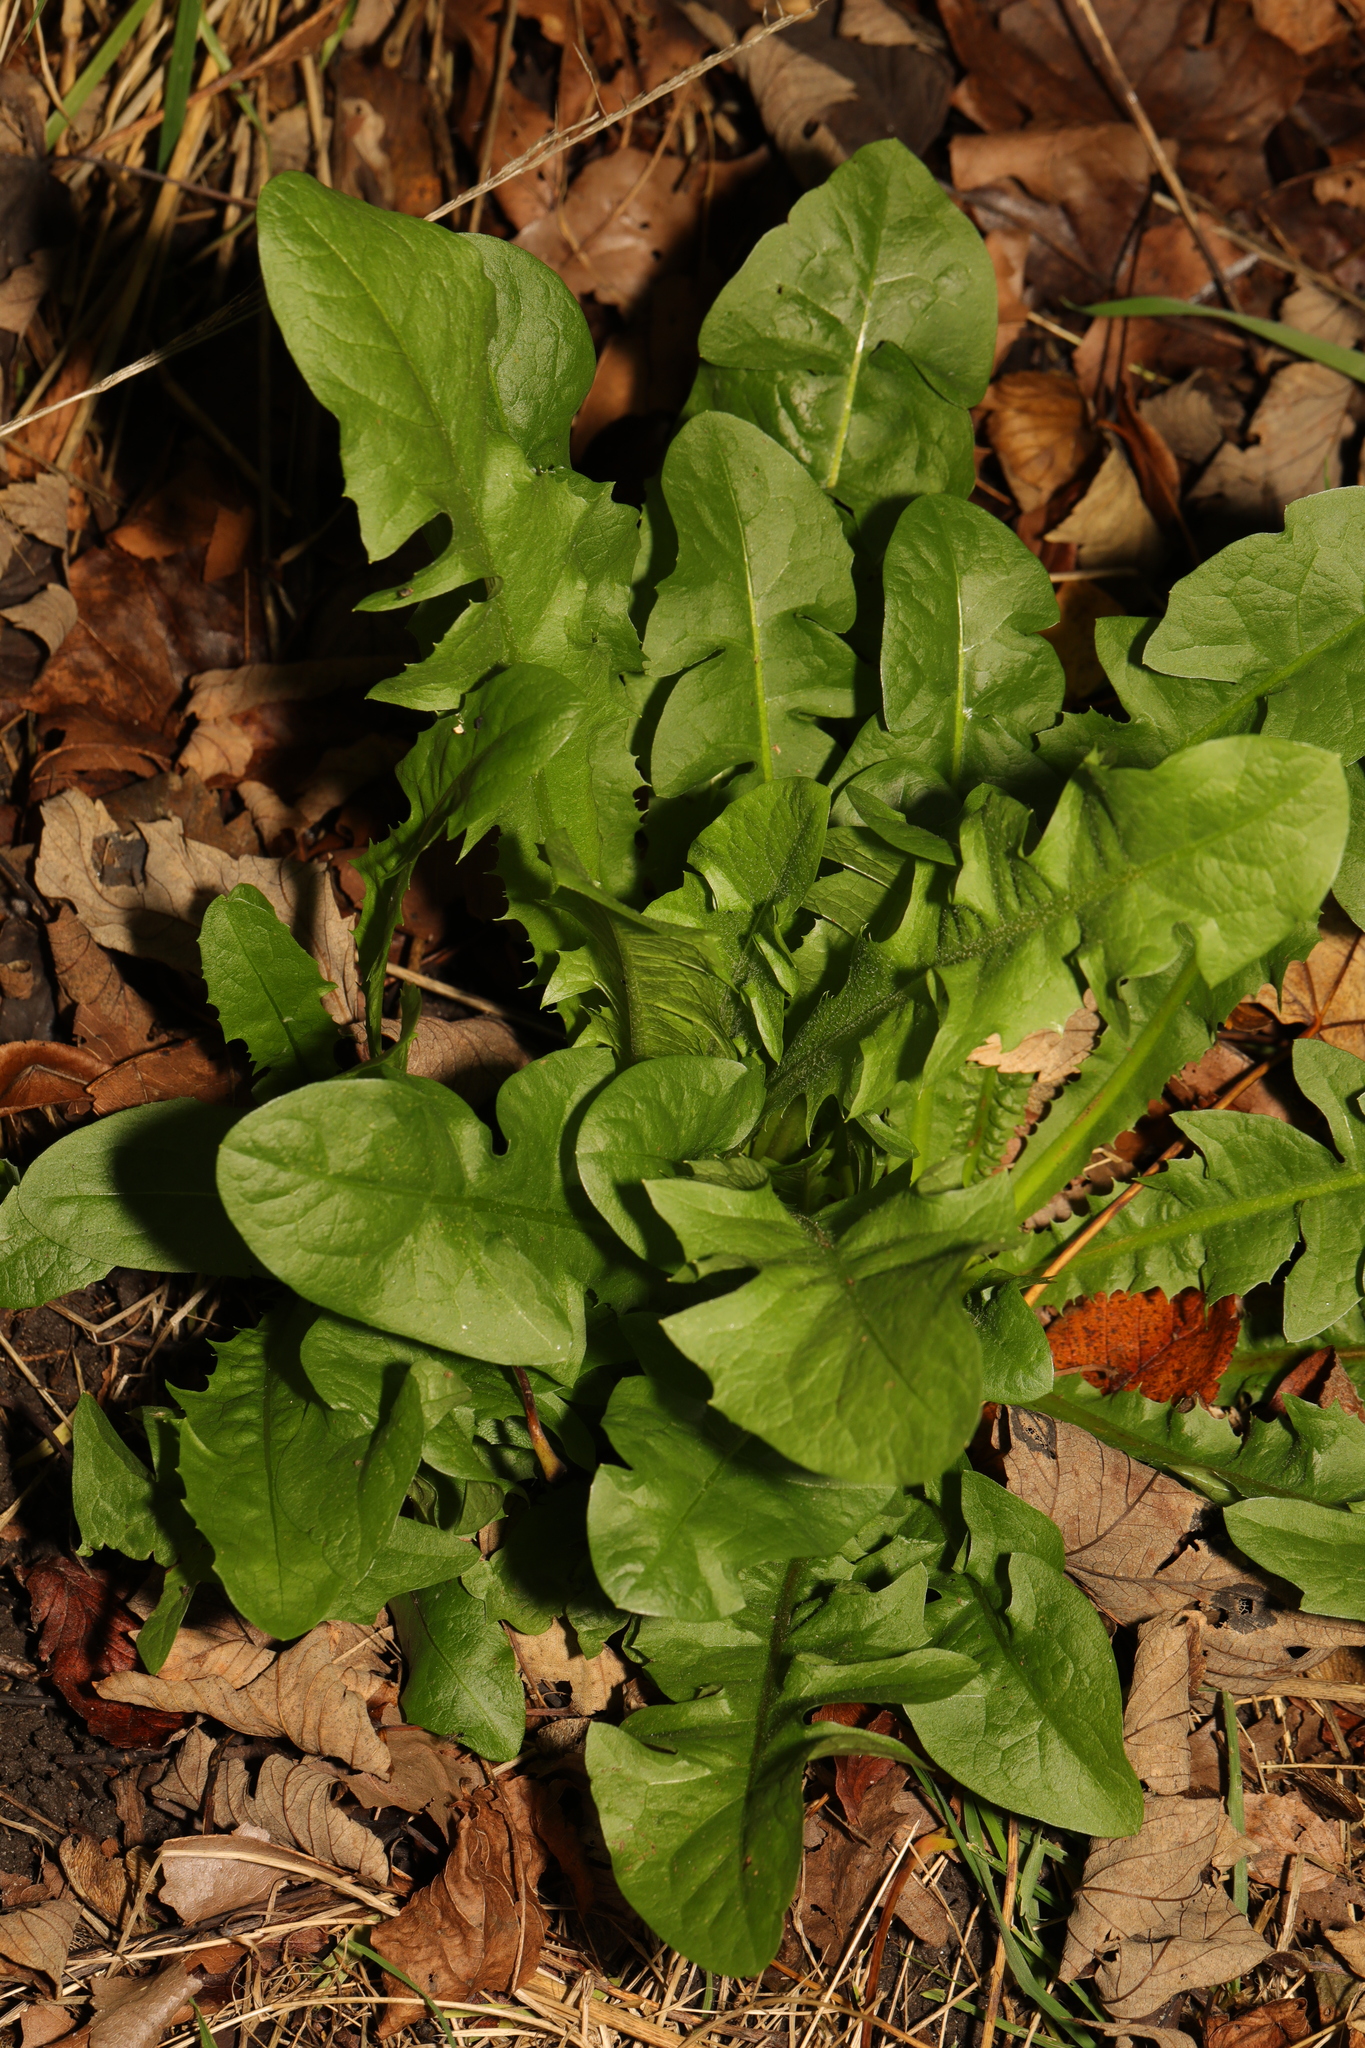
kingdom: Plantae
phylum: Tracheophyta
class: Magnoliopsida
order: Asterales
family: Asteraceae
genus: Taraxacum
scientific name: Taraxacum officinale
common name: Common dandelion
